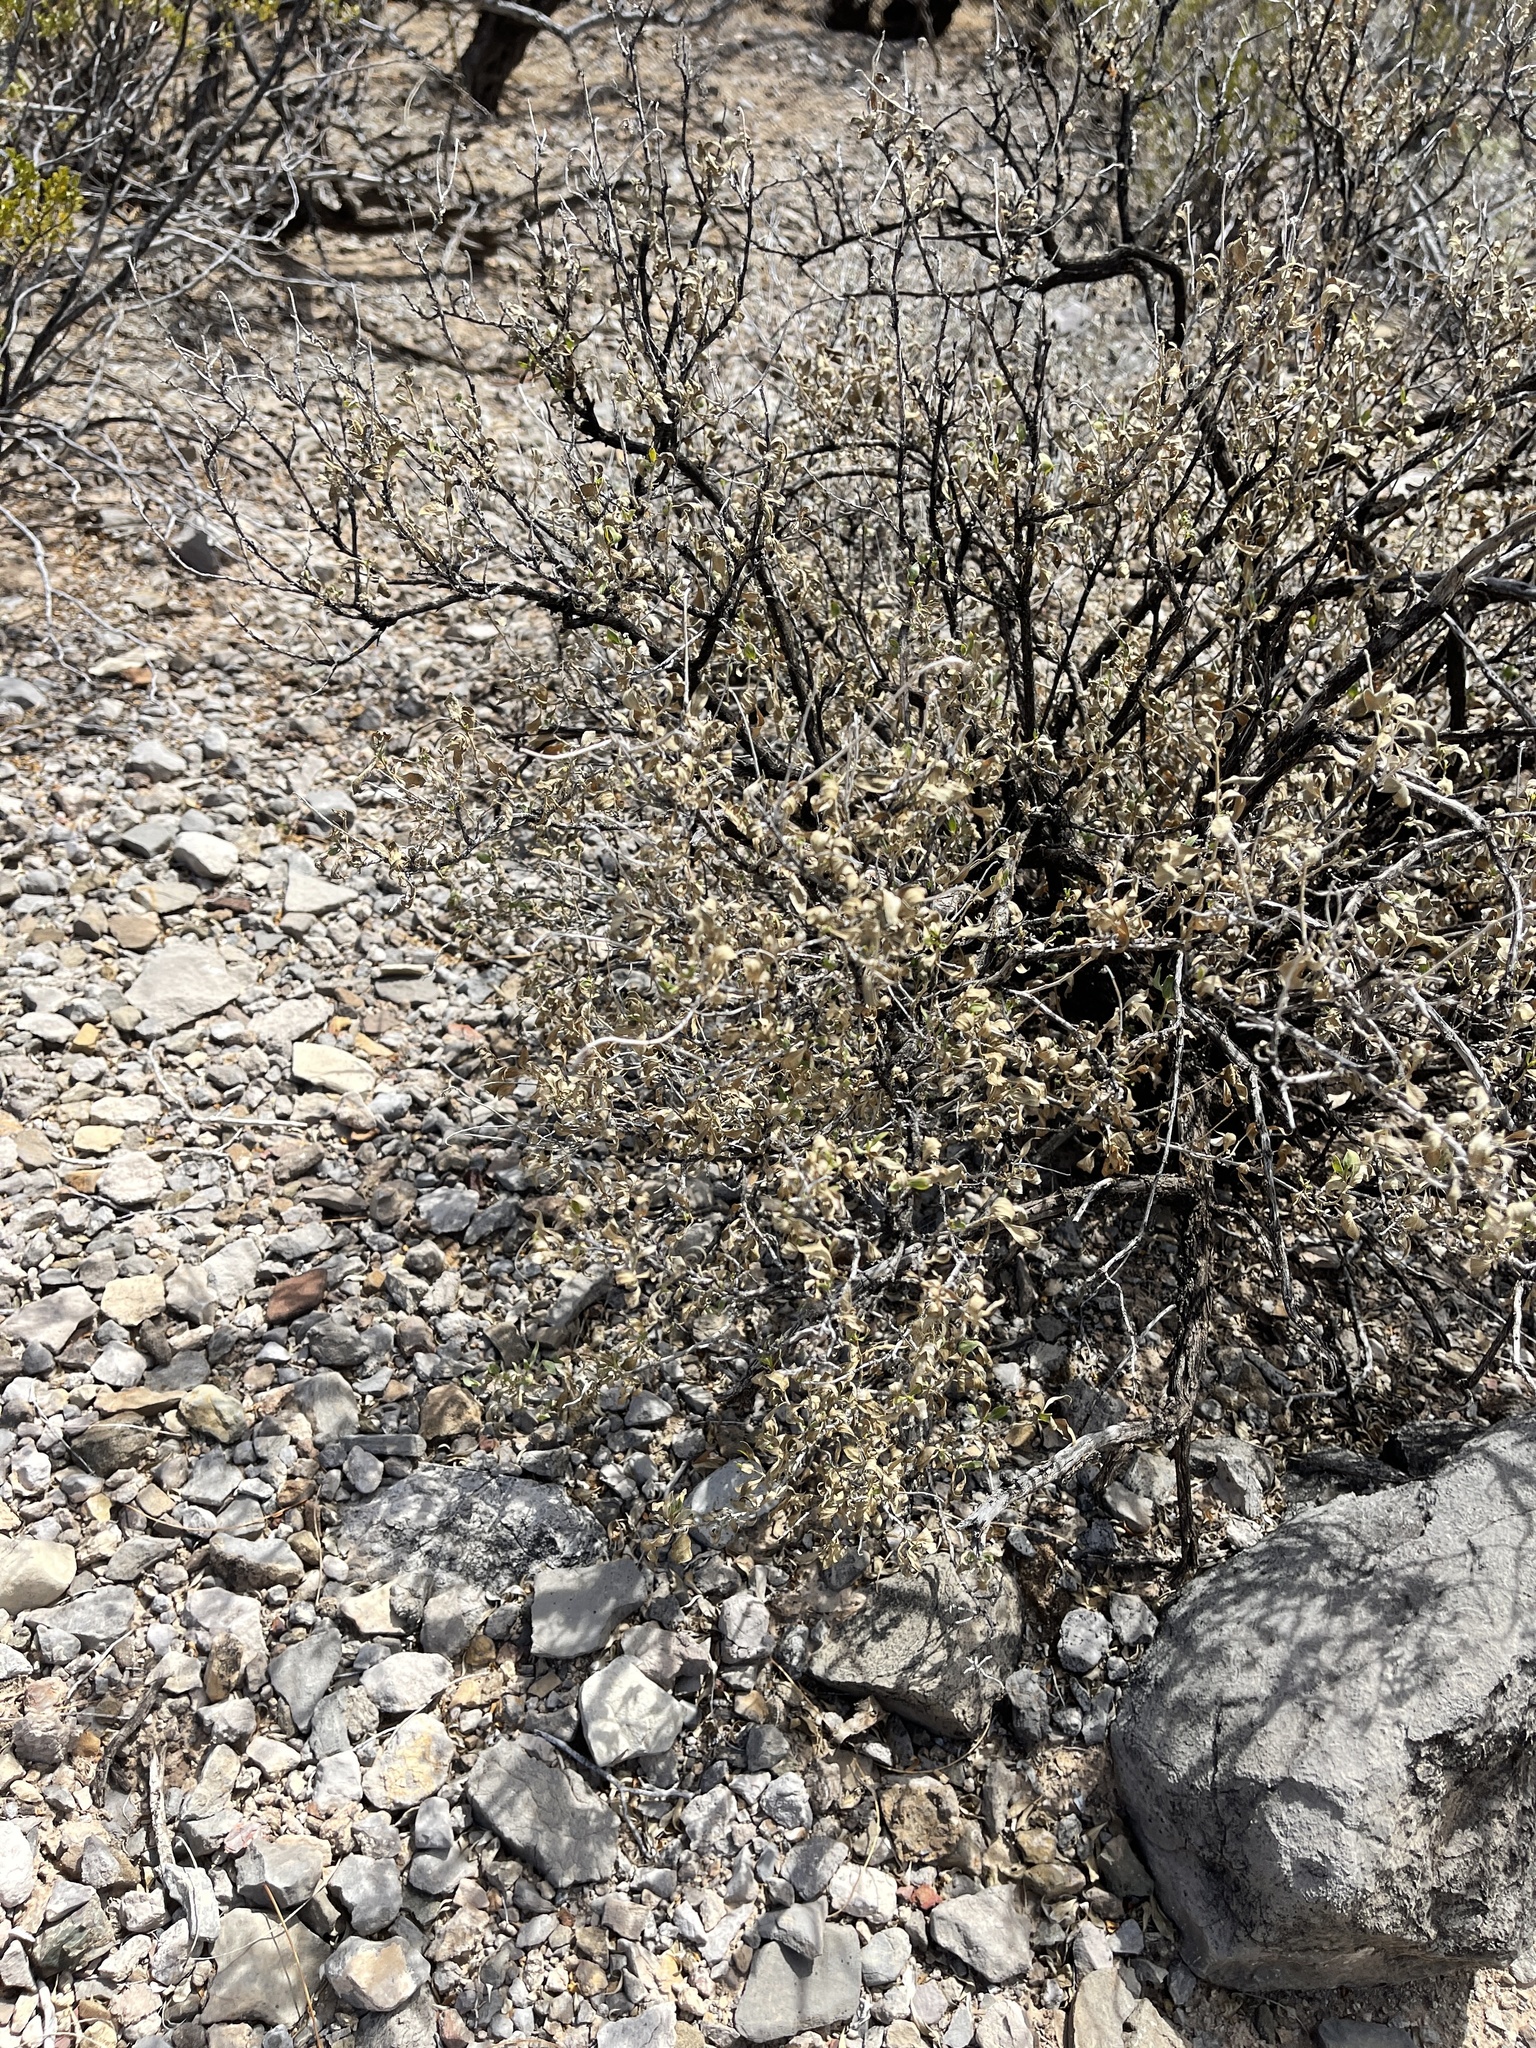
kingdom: Plantae
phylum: Tracheophyta
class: Magnoliopsida
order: Asterales
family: Asteraceae
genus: Flourensia
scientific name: Flourensia cernua
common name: Varnishbush
